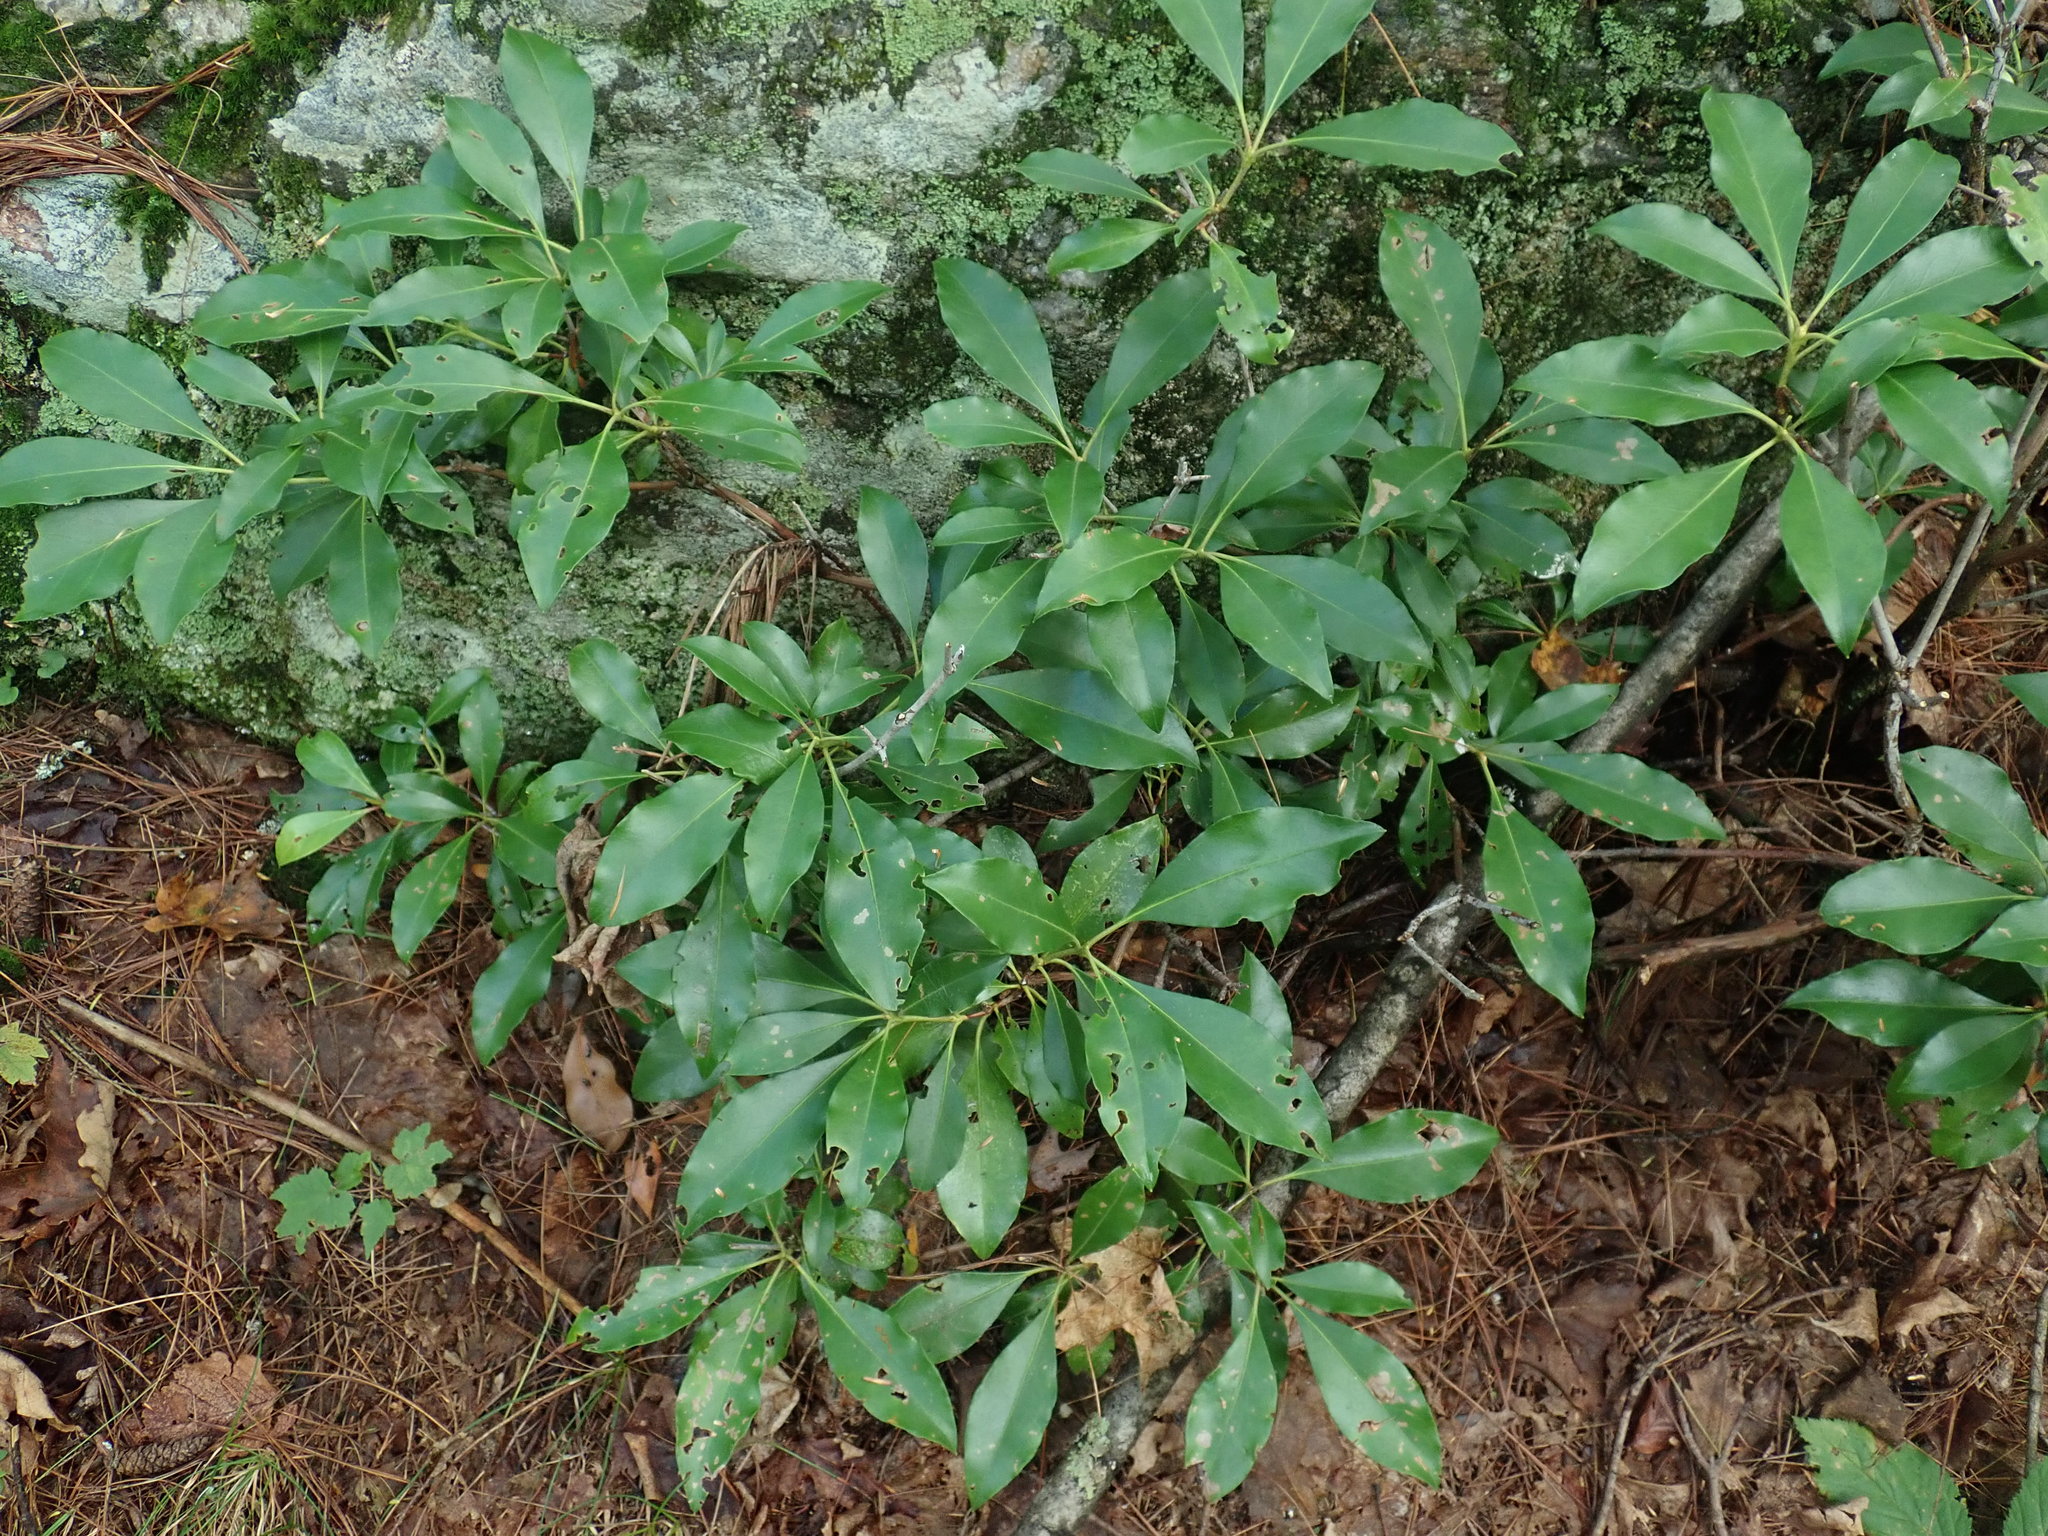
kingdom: Plantae
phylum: Tracheophyta
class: Magnoliopsida
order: Ericales
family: Ericaceae
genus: Kalmia
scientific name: Kalmia latifolia
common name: Mountain-laurel
